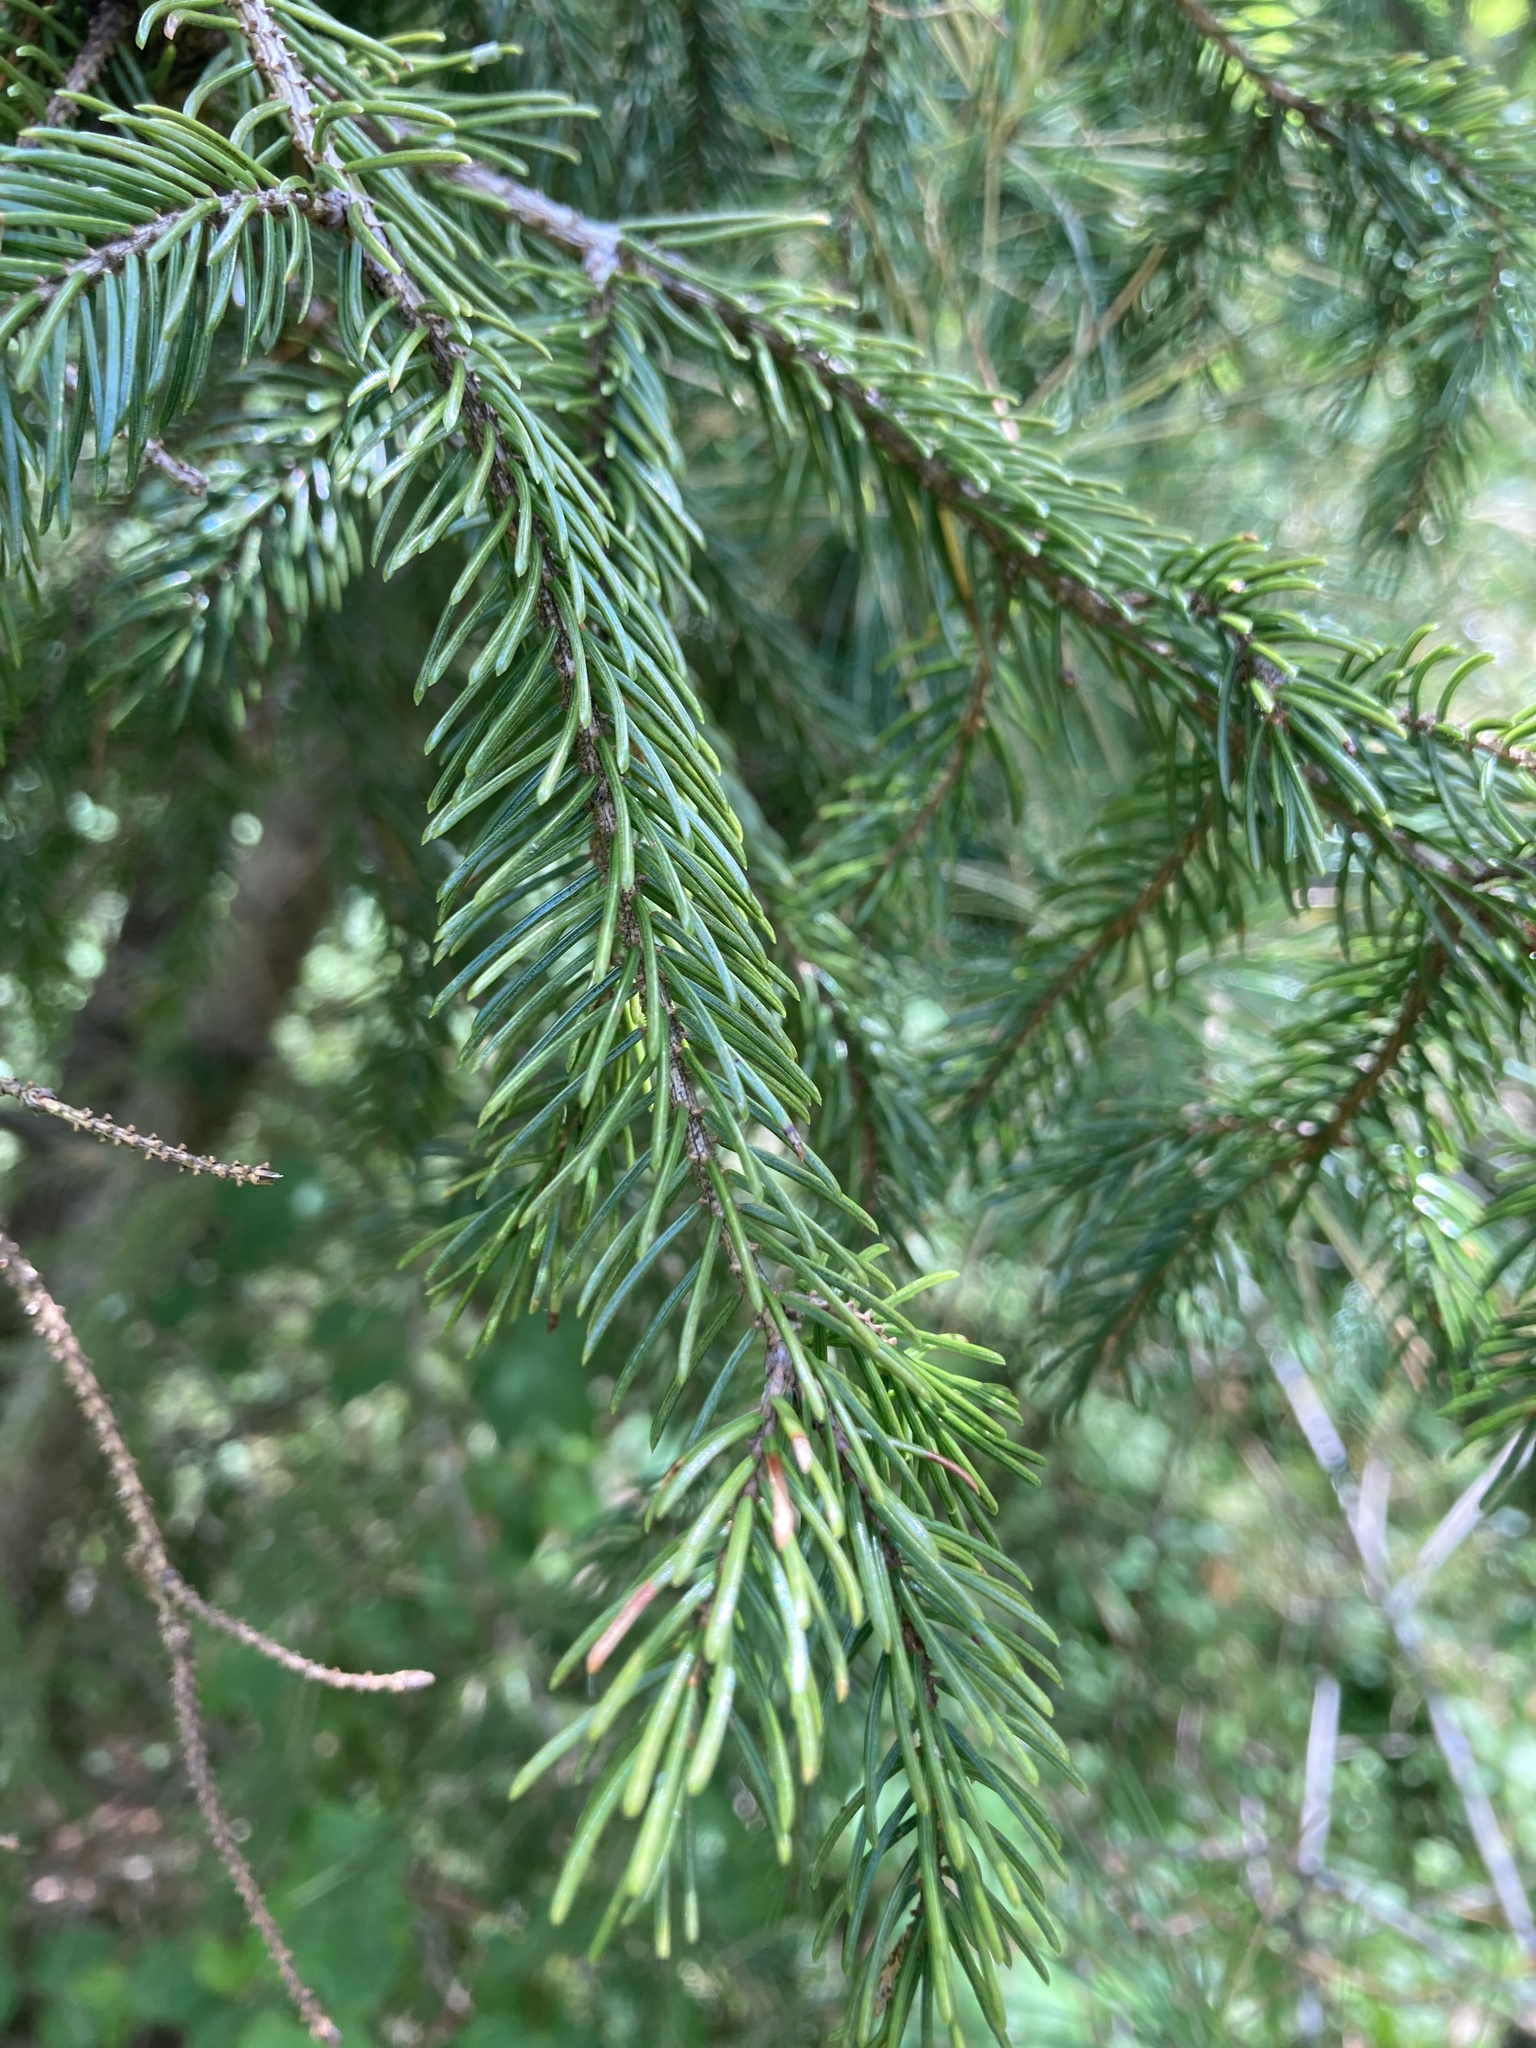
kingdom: Plantae
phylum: Tracheophyta
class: Pinopsida
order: Pinales
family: Pinaceae
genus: Picea
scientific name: Picea rubens
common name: Red spruce
